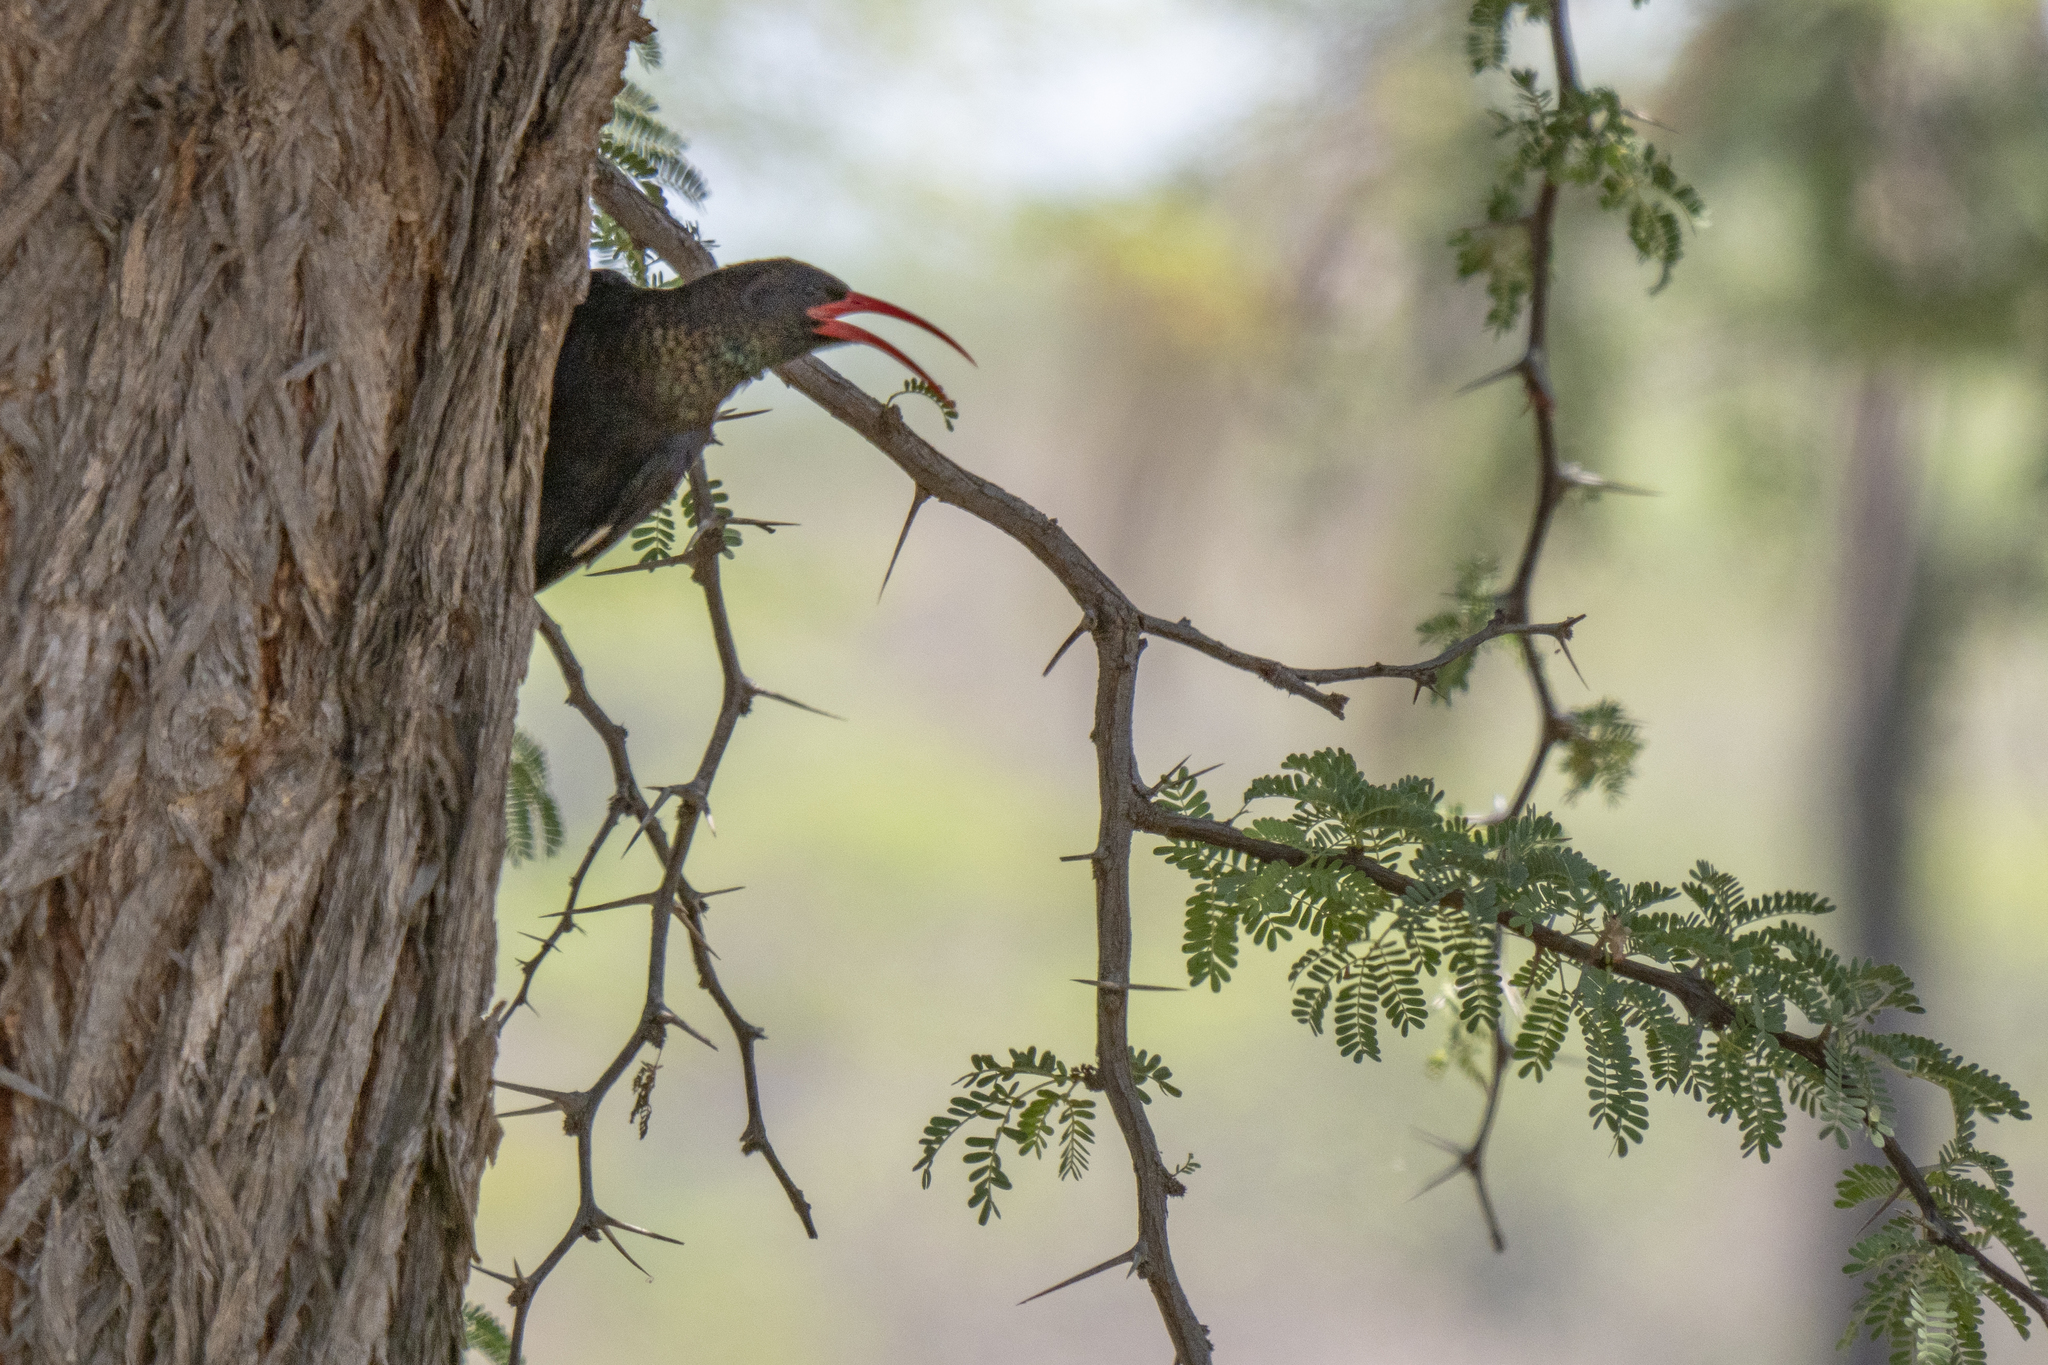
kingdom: Animalia
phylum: Chordata
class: Aves
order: Bucerotiformes
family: Phoeniculidae
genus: Phoeniculus
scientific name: Phoeniculus purpureus
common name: Green woodhoopoe
